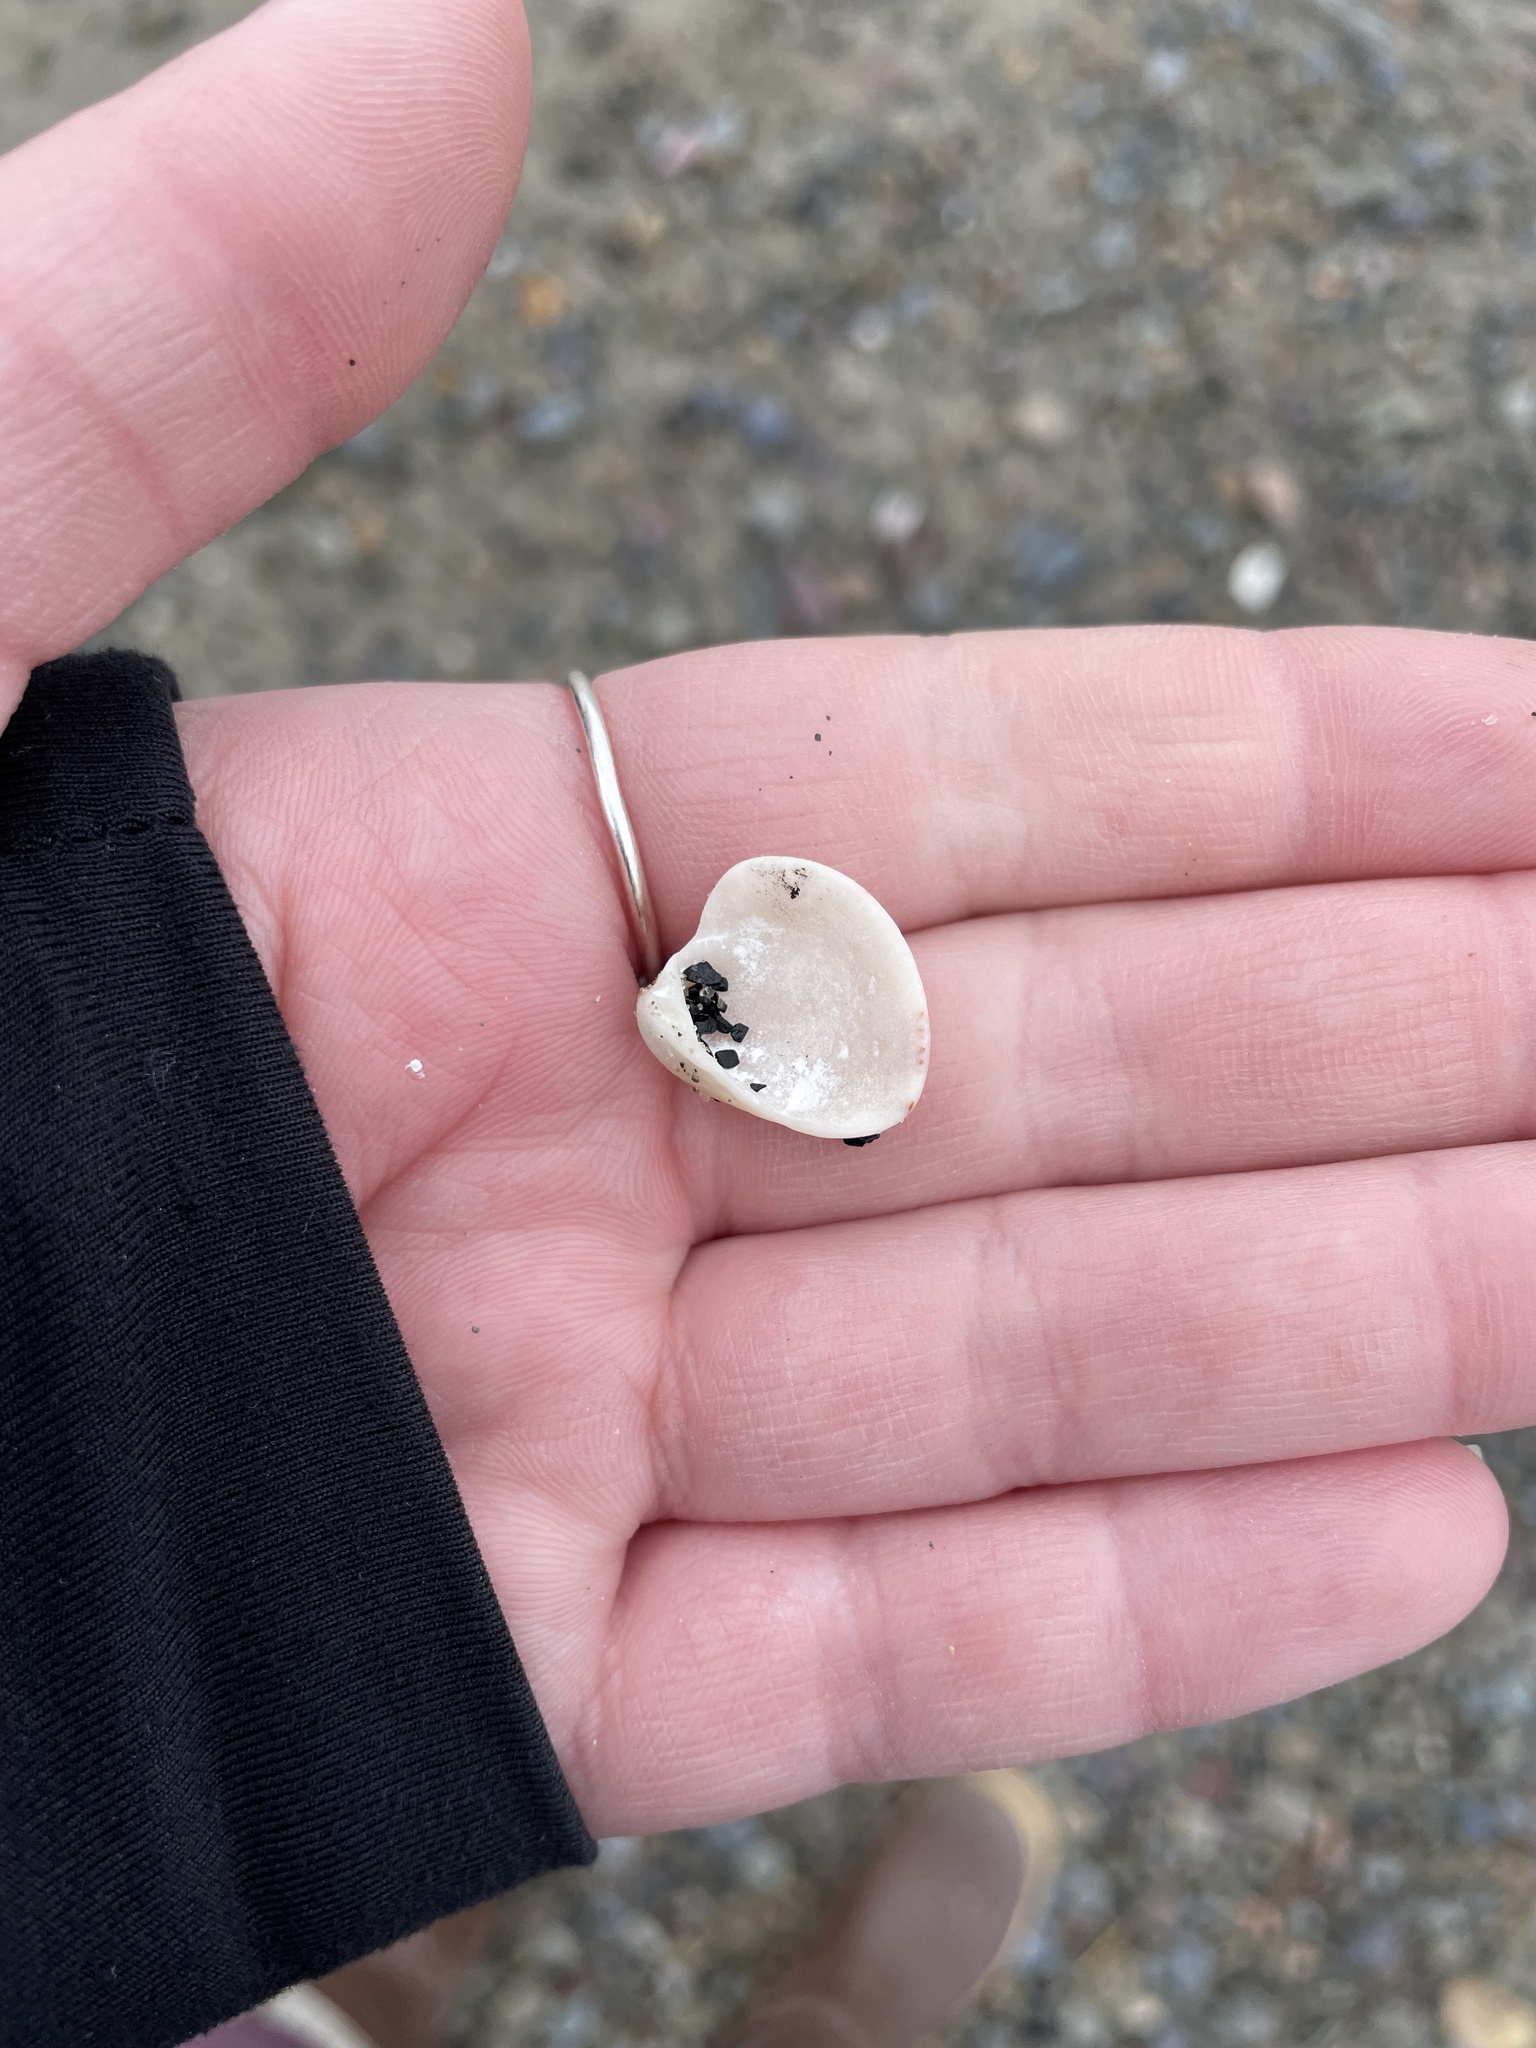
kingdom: Animalia
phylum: Mollusca
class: Bivalvia
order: Venerida
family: Veneridae
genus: Mercenaria
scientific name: Mercenaria mercenaria
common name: American hard-shelled clam
